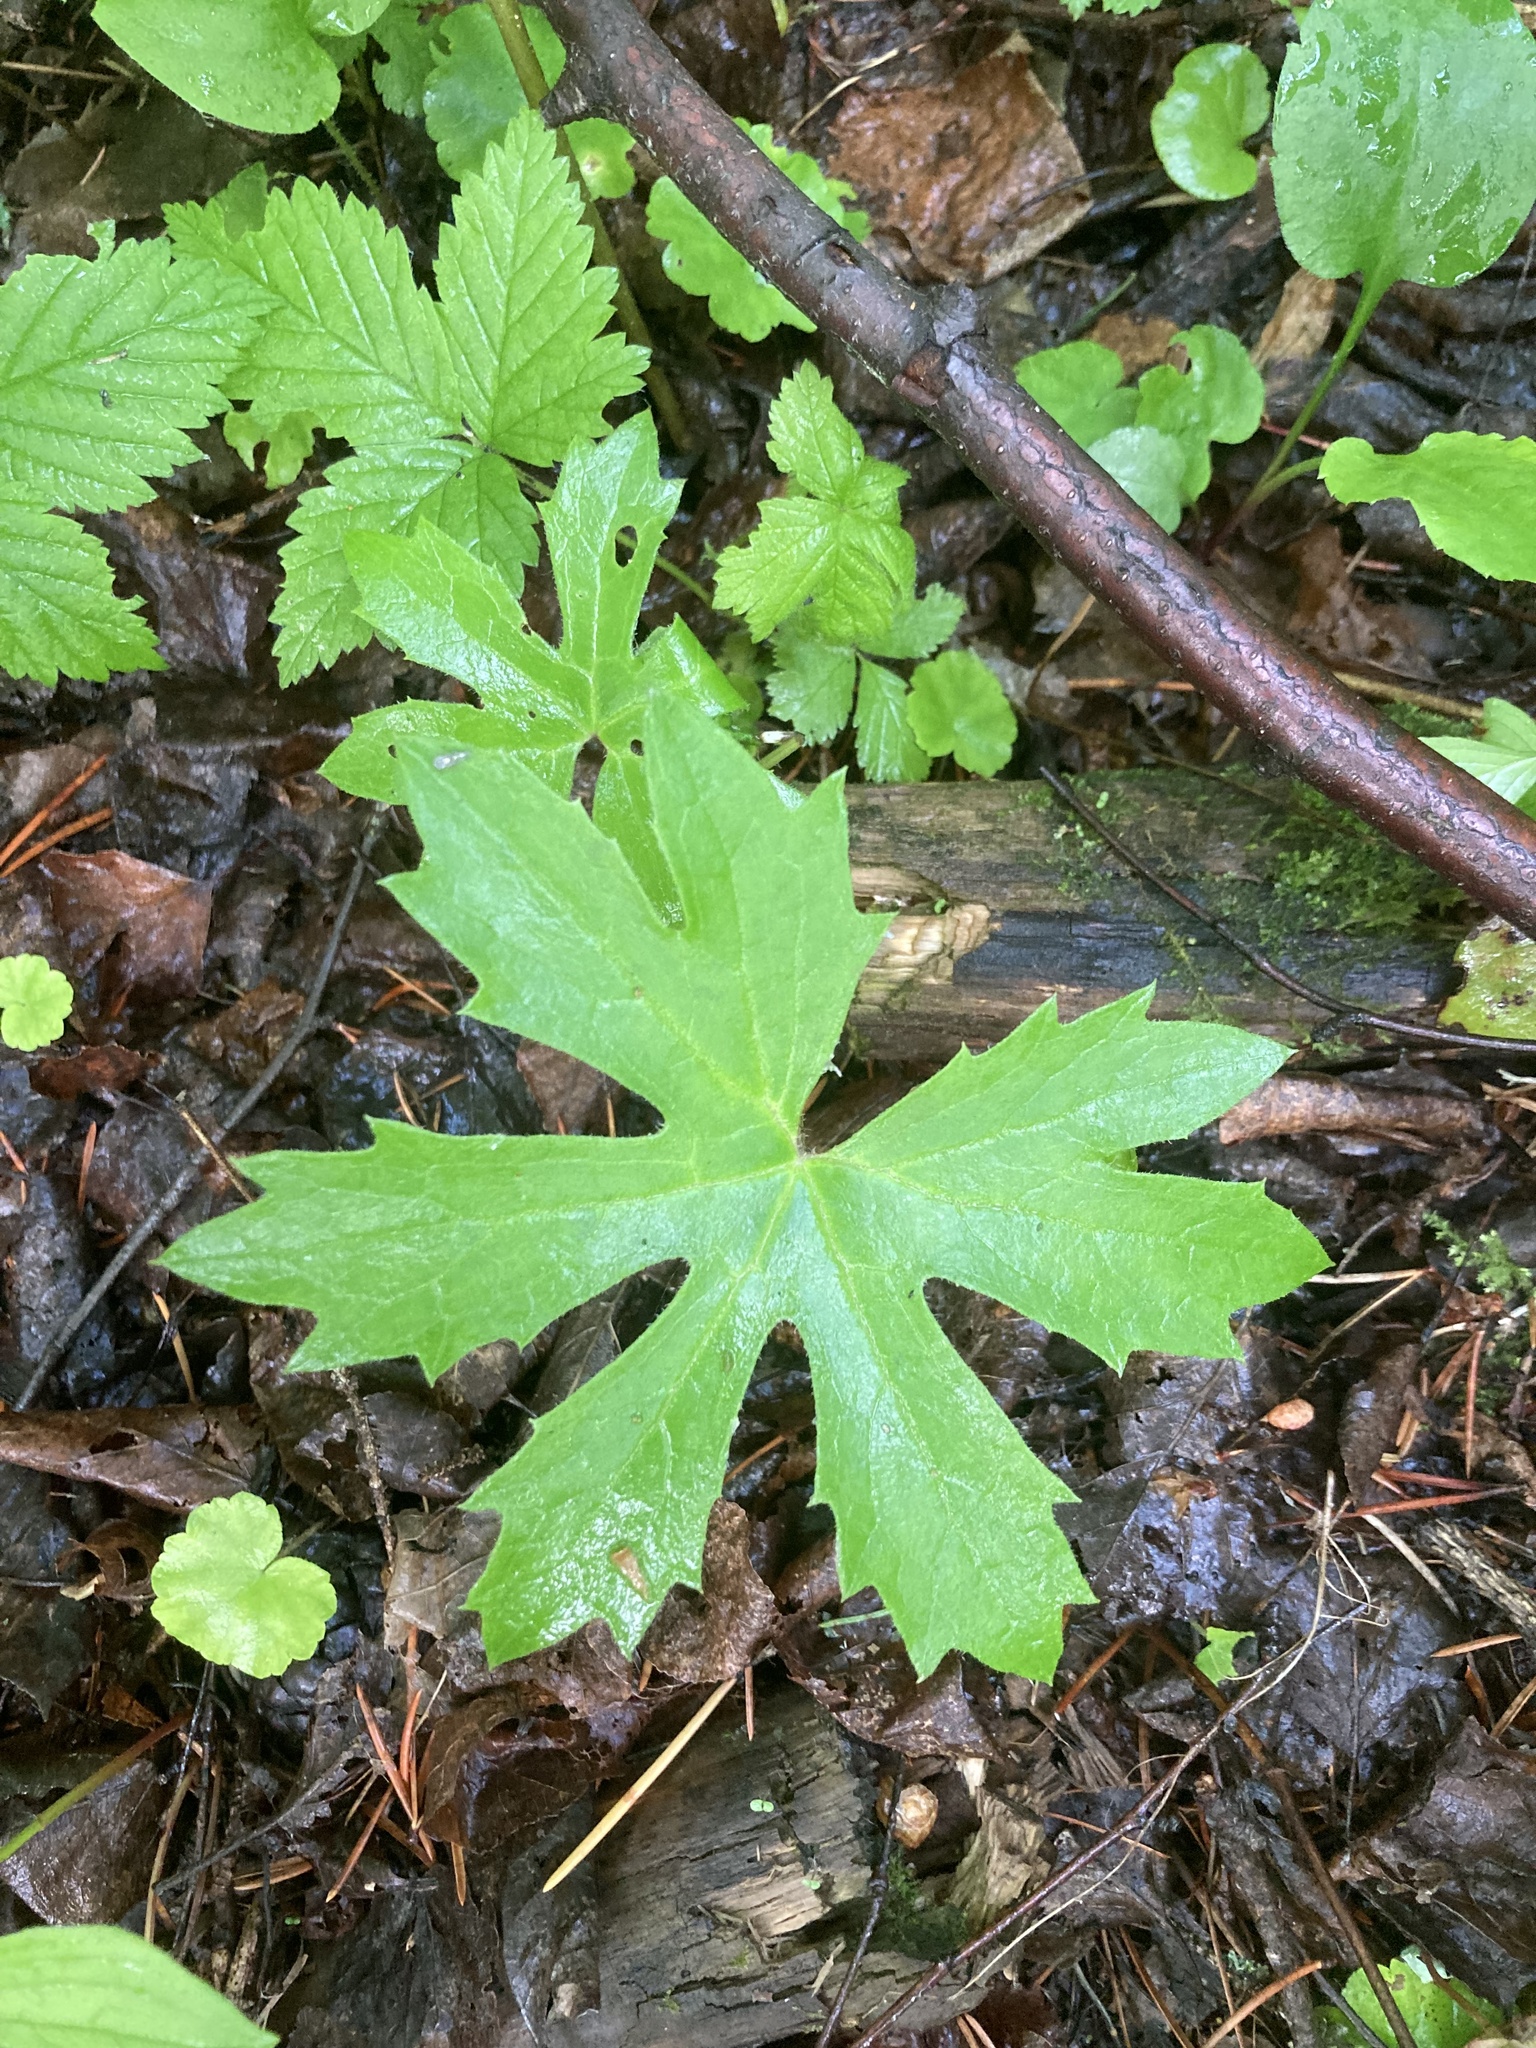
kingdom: Plantae
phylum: Tracheophyta
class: Magnoliopsida
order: Asterales
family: Asteraceae
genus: Petasites
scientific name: Petasites frigidus
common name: Arctic butterbur
